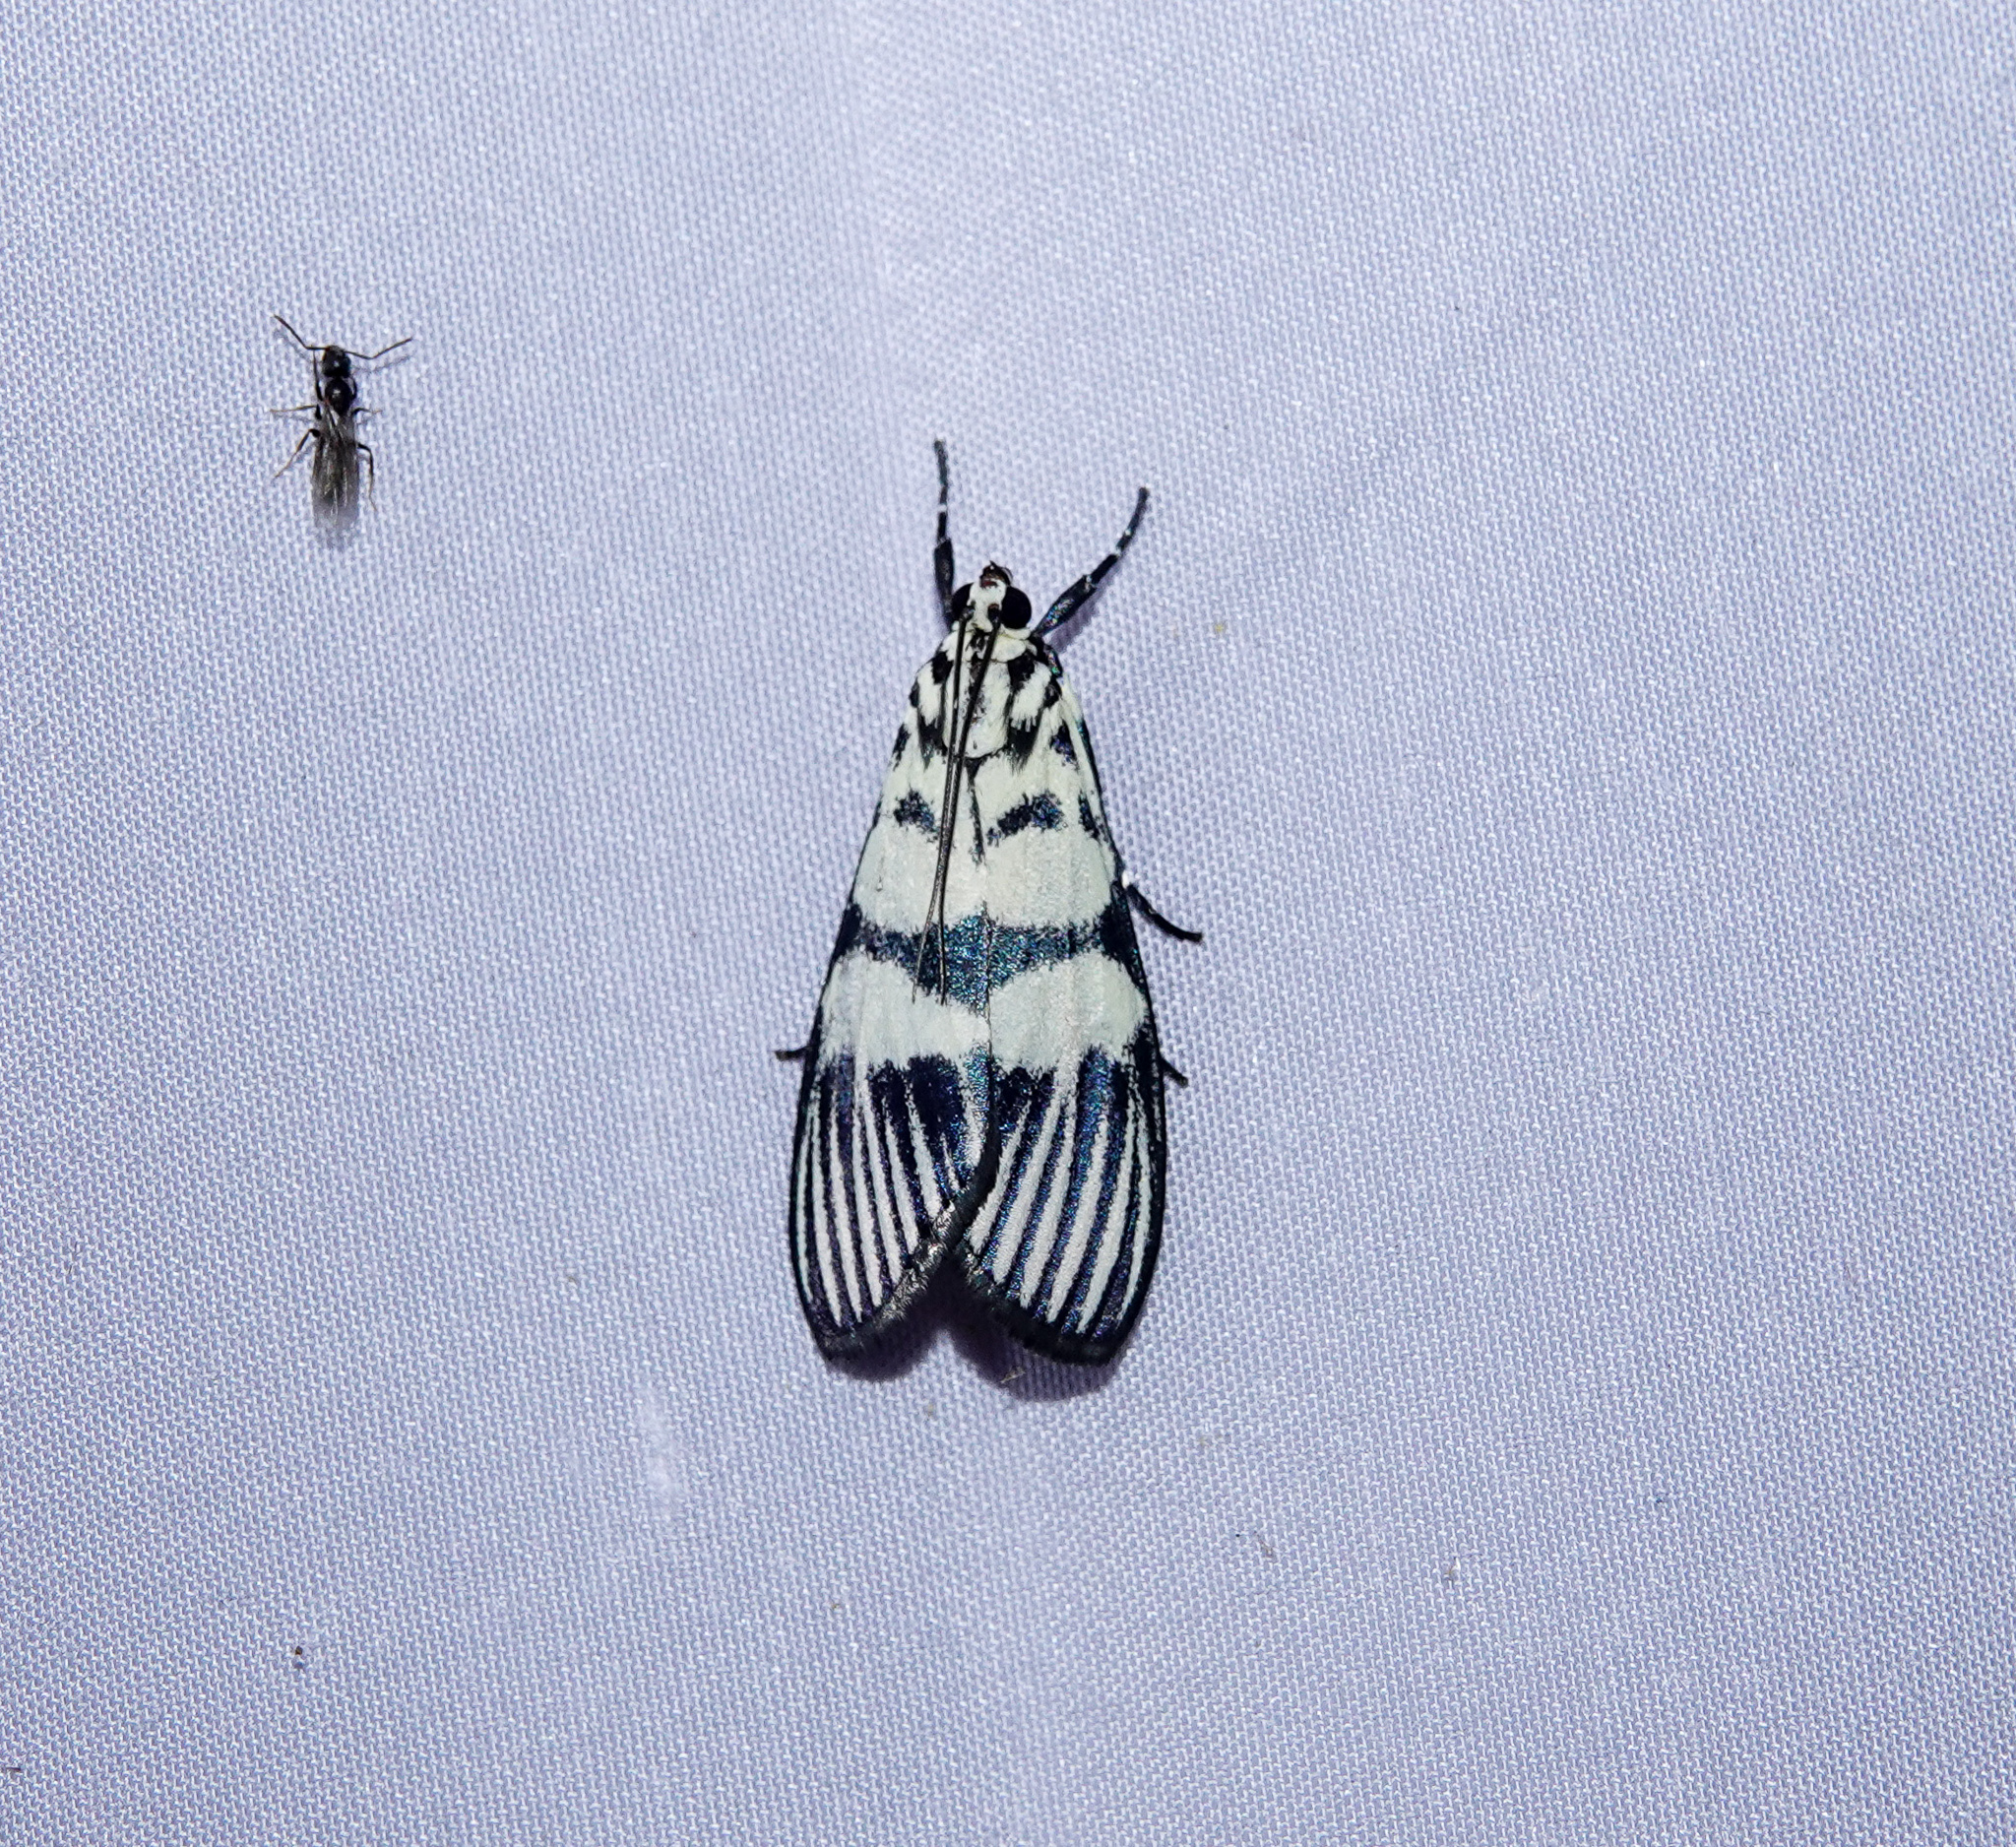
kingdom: Animalia
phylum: Arthropoda
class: Insecta
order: Lepidoptera
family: Crambidae
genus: Heortia
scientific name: Heortia vitessoides
